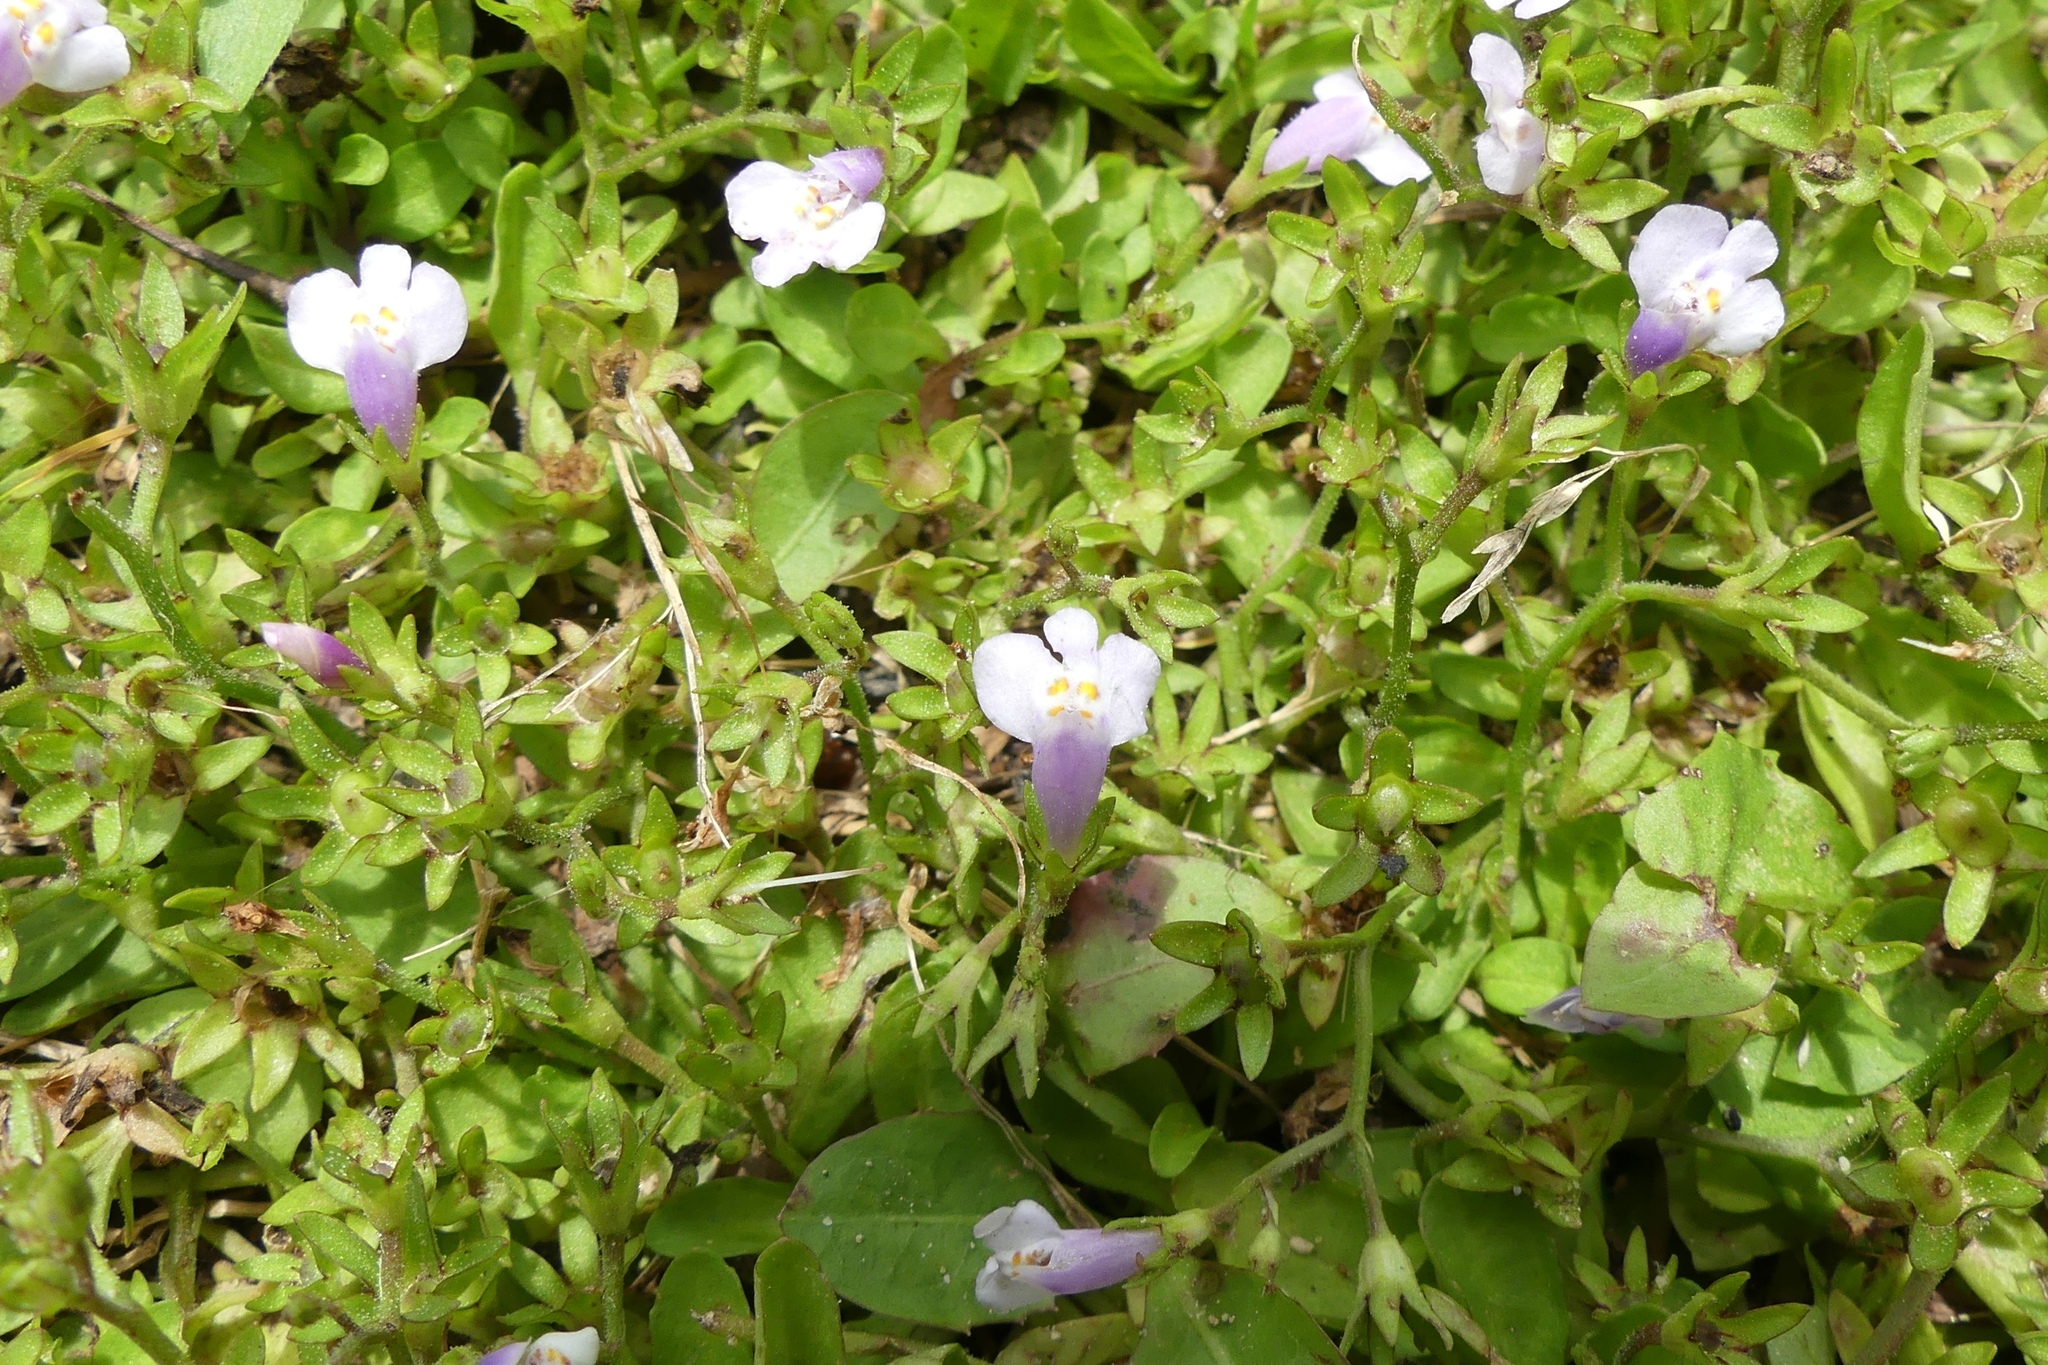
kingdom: Plantae
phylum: Tracheophyta
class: Magnoliopsida
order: Lamiales
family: Mazaceae
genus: Mazus
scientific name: Mazus pumilus
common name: Japanese mazus
